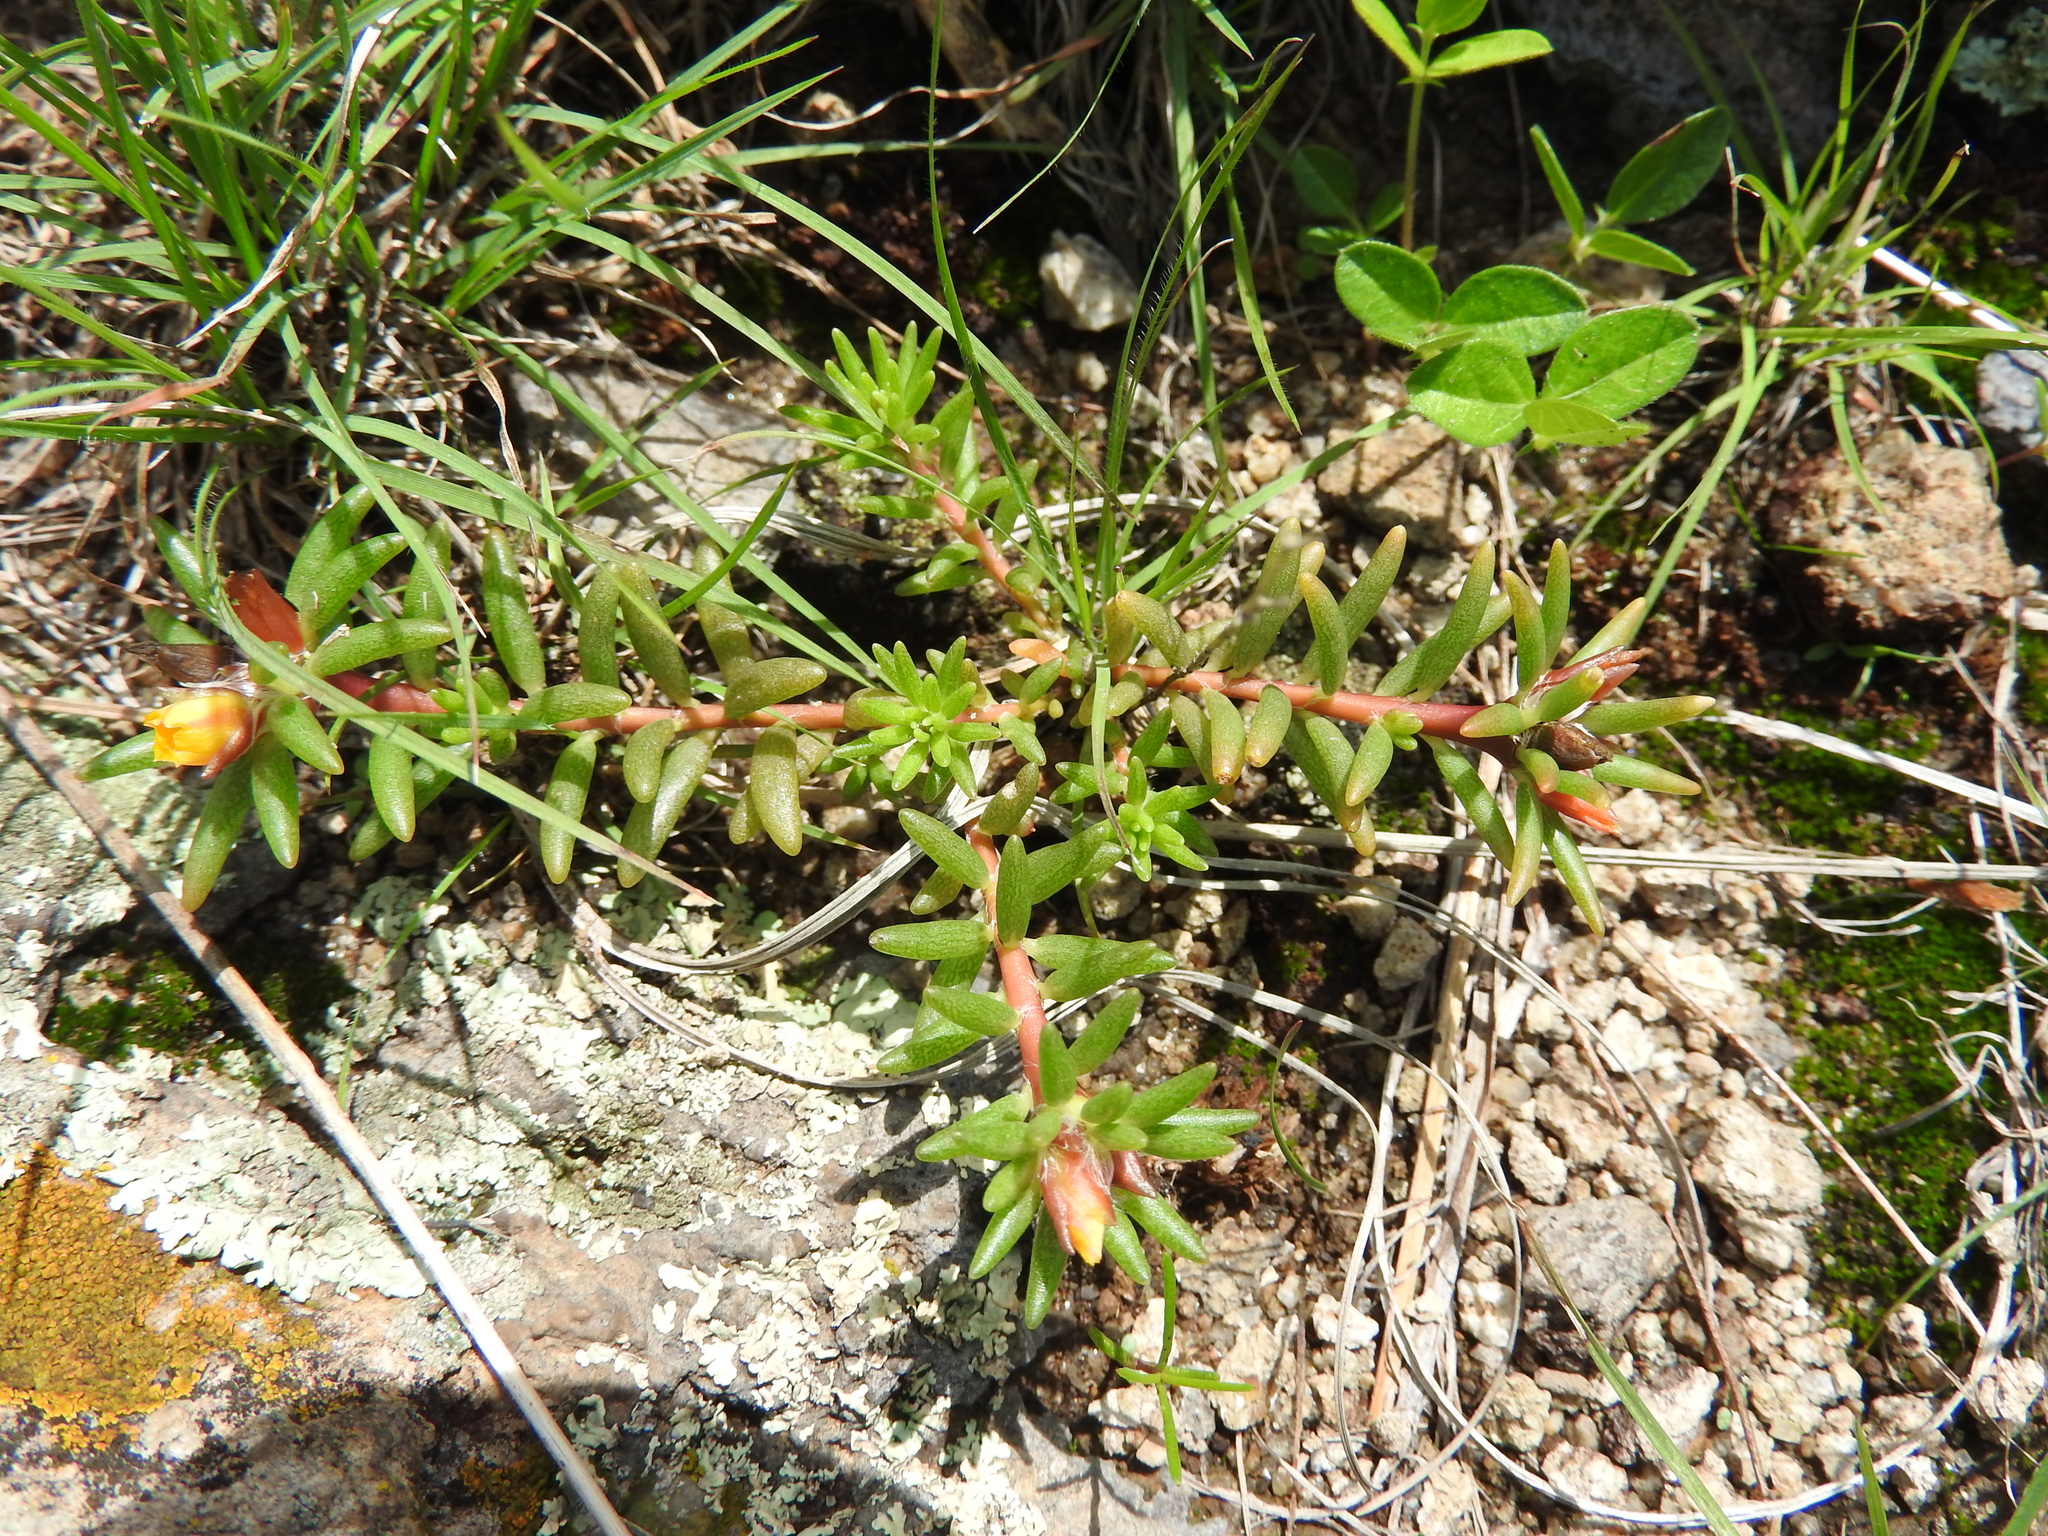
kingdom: Plantae
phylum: Tracheophyta
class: Magnoliopsida
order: Caryophyllales
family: Portulacaceae
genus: Portulaca
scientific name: Portulaca mexicana
